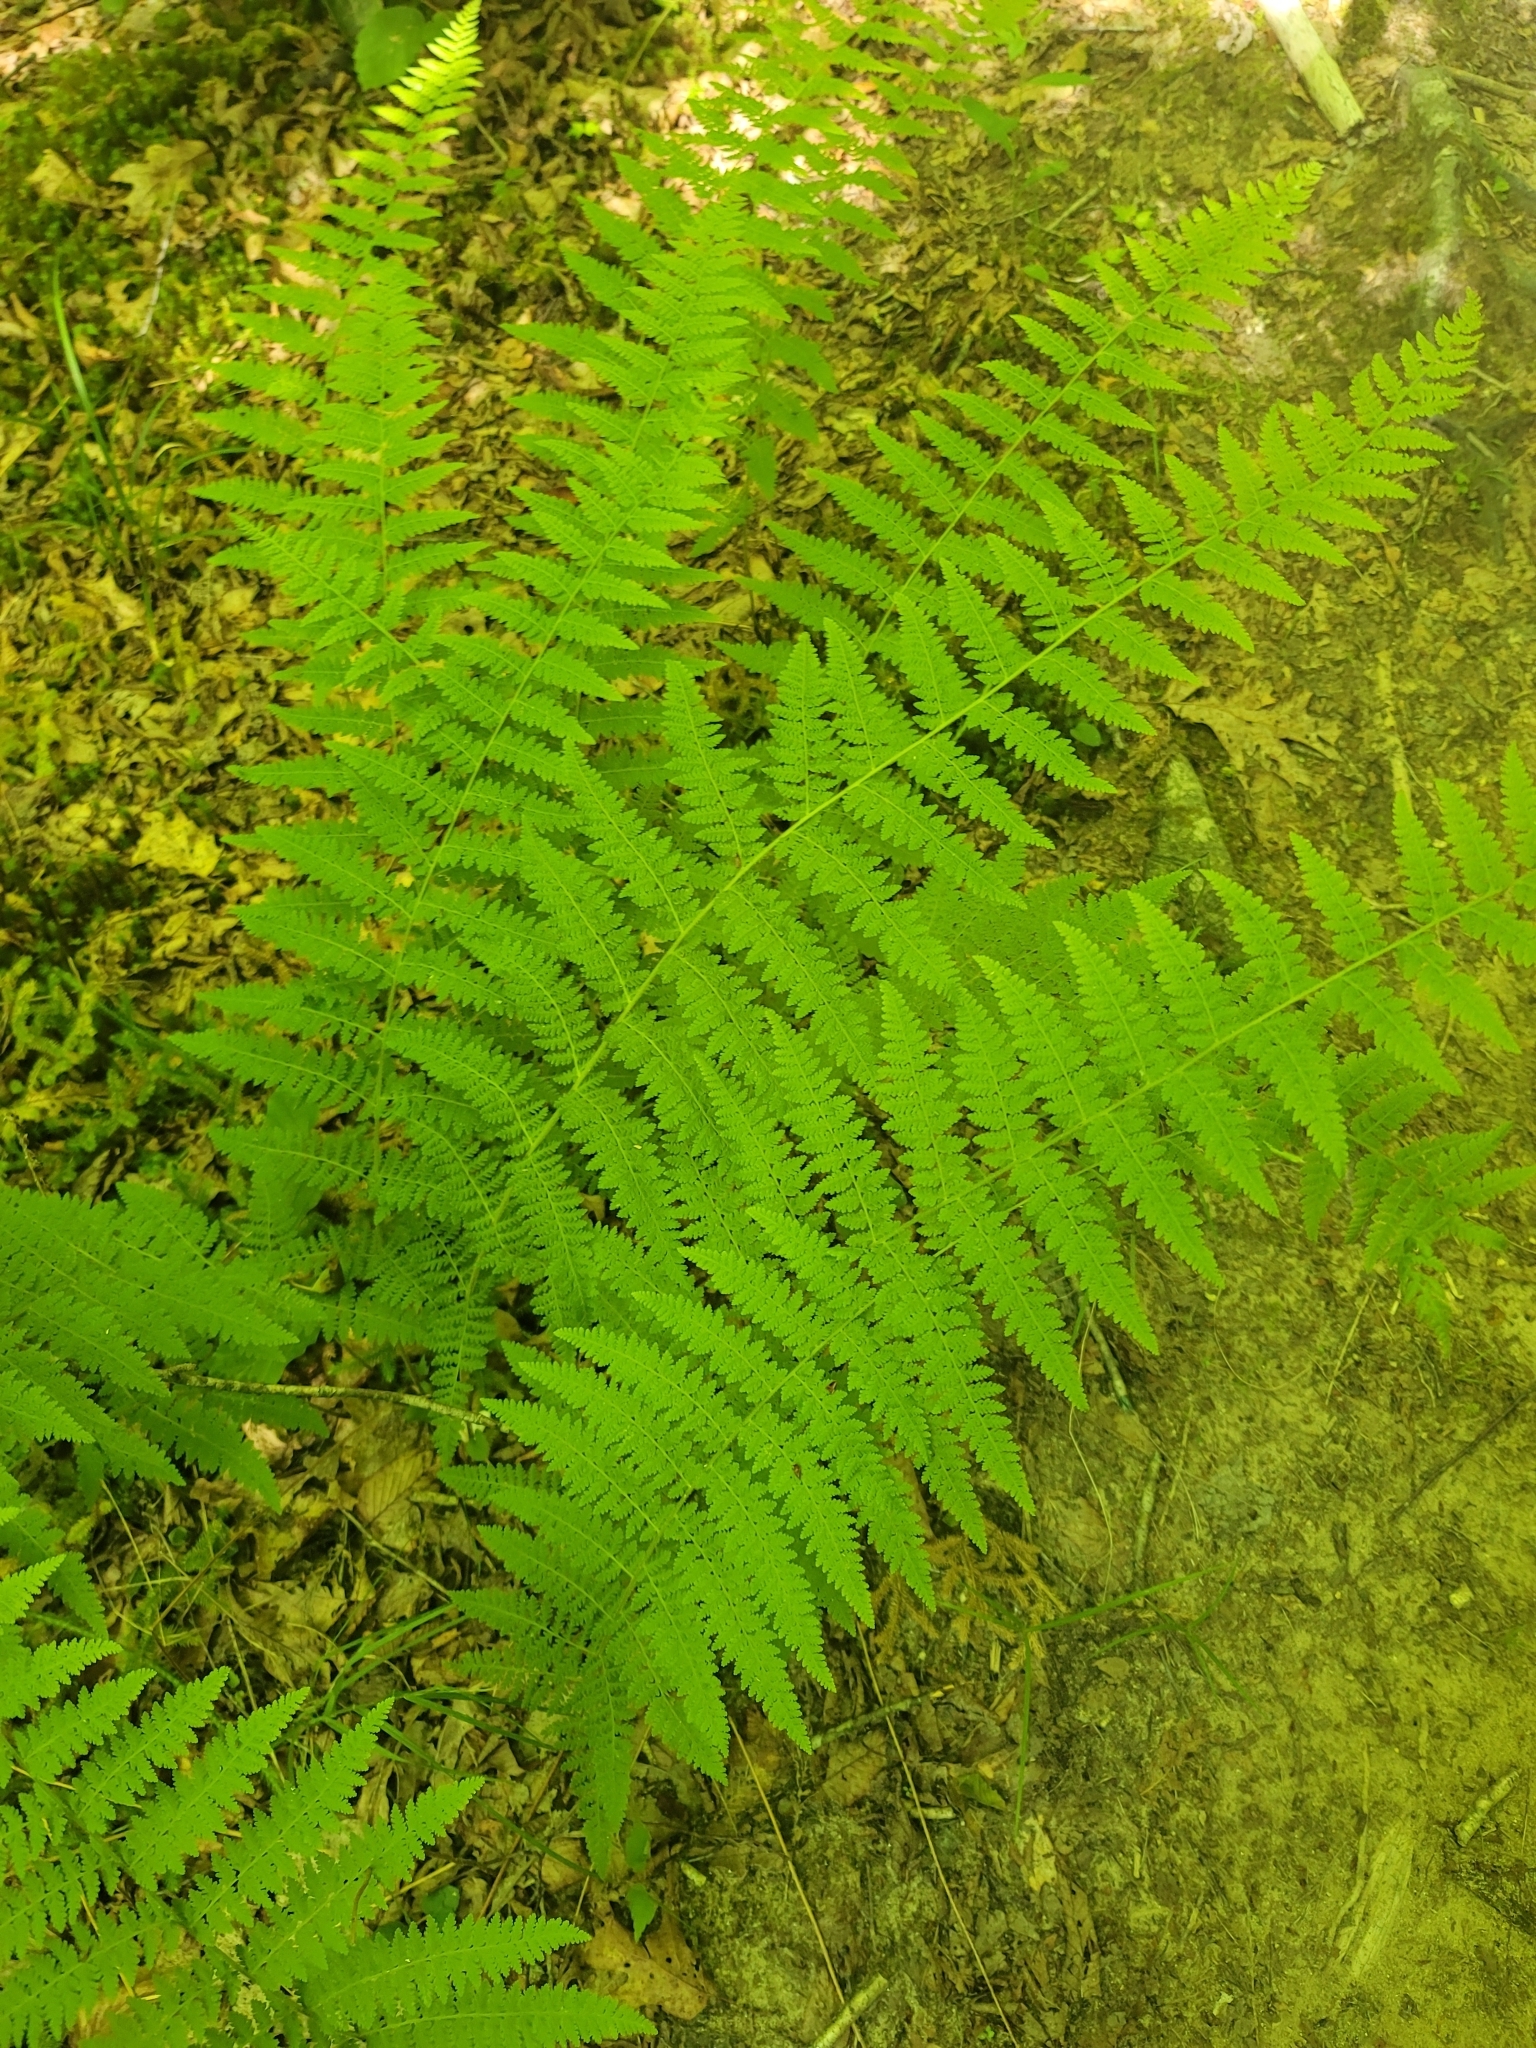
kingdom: Plantae
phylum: Tracheophyta
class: Polypodiopsida
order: Polypodiales
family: Dennstaedtiaceae
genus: Sitobolium
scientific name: Sitobolium punctilobum
